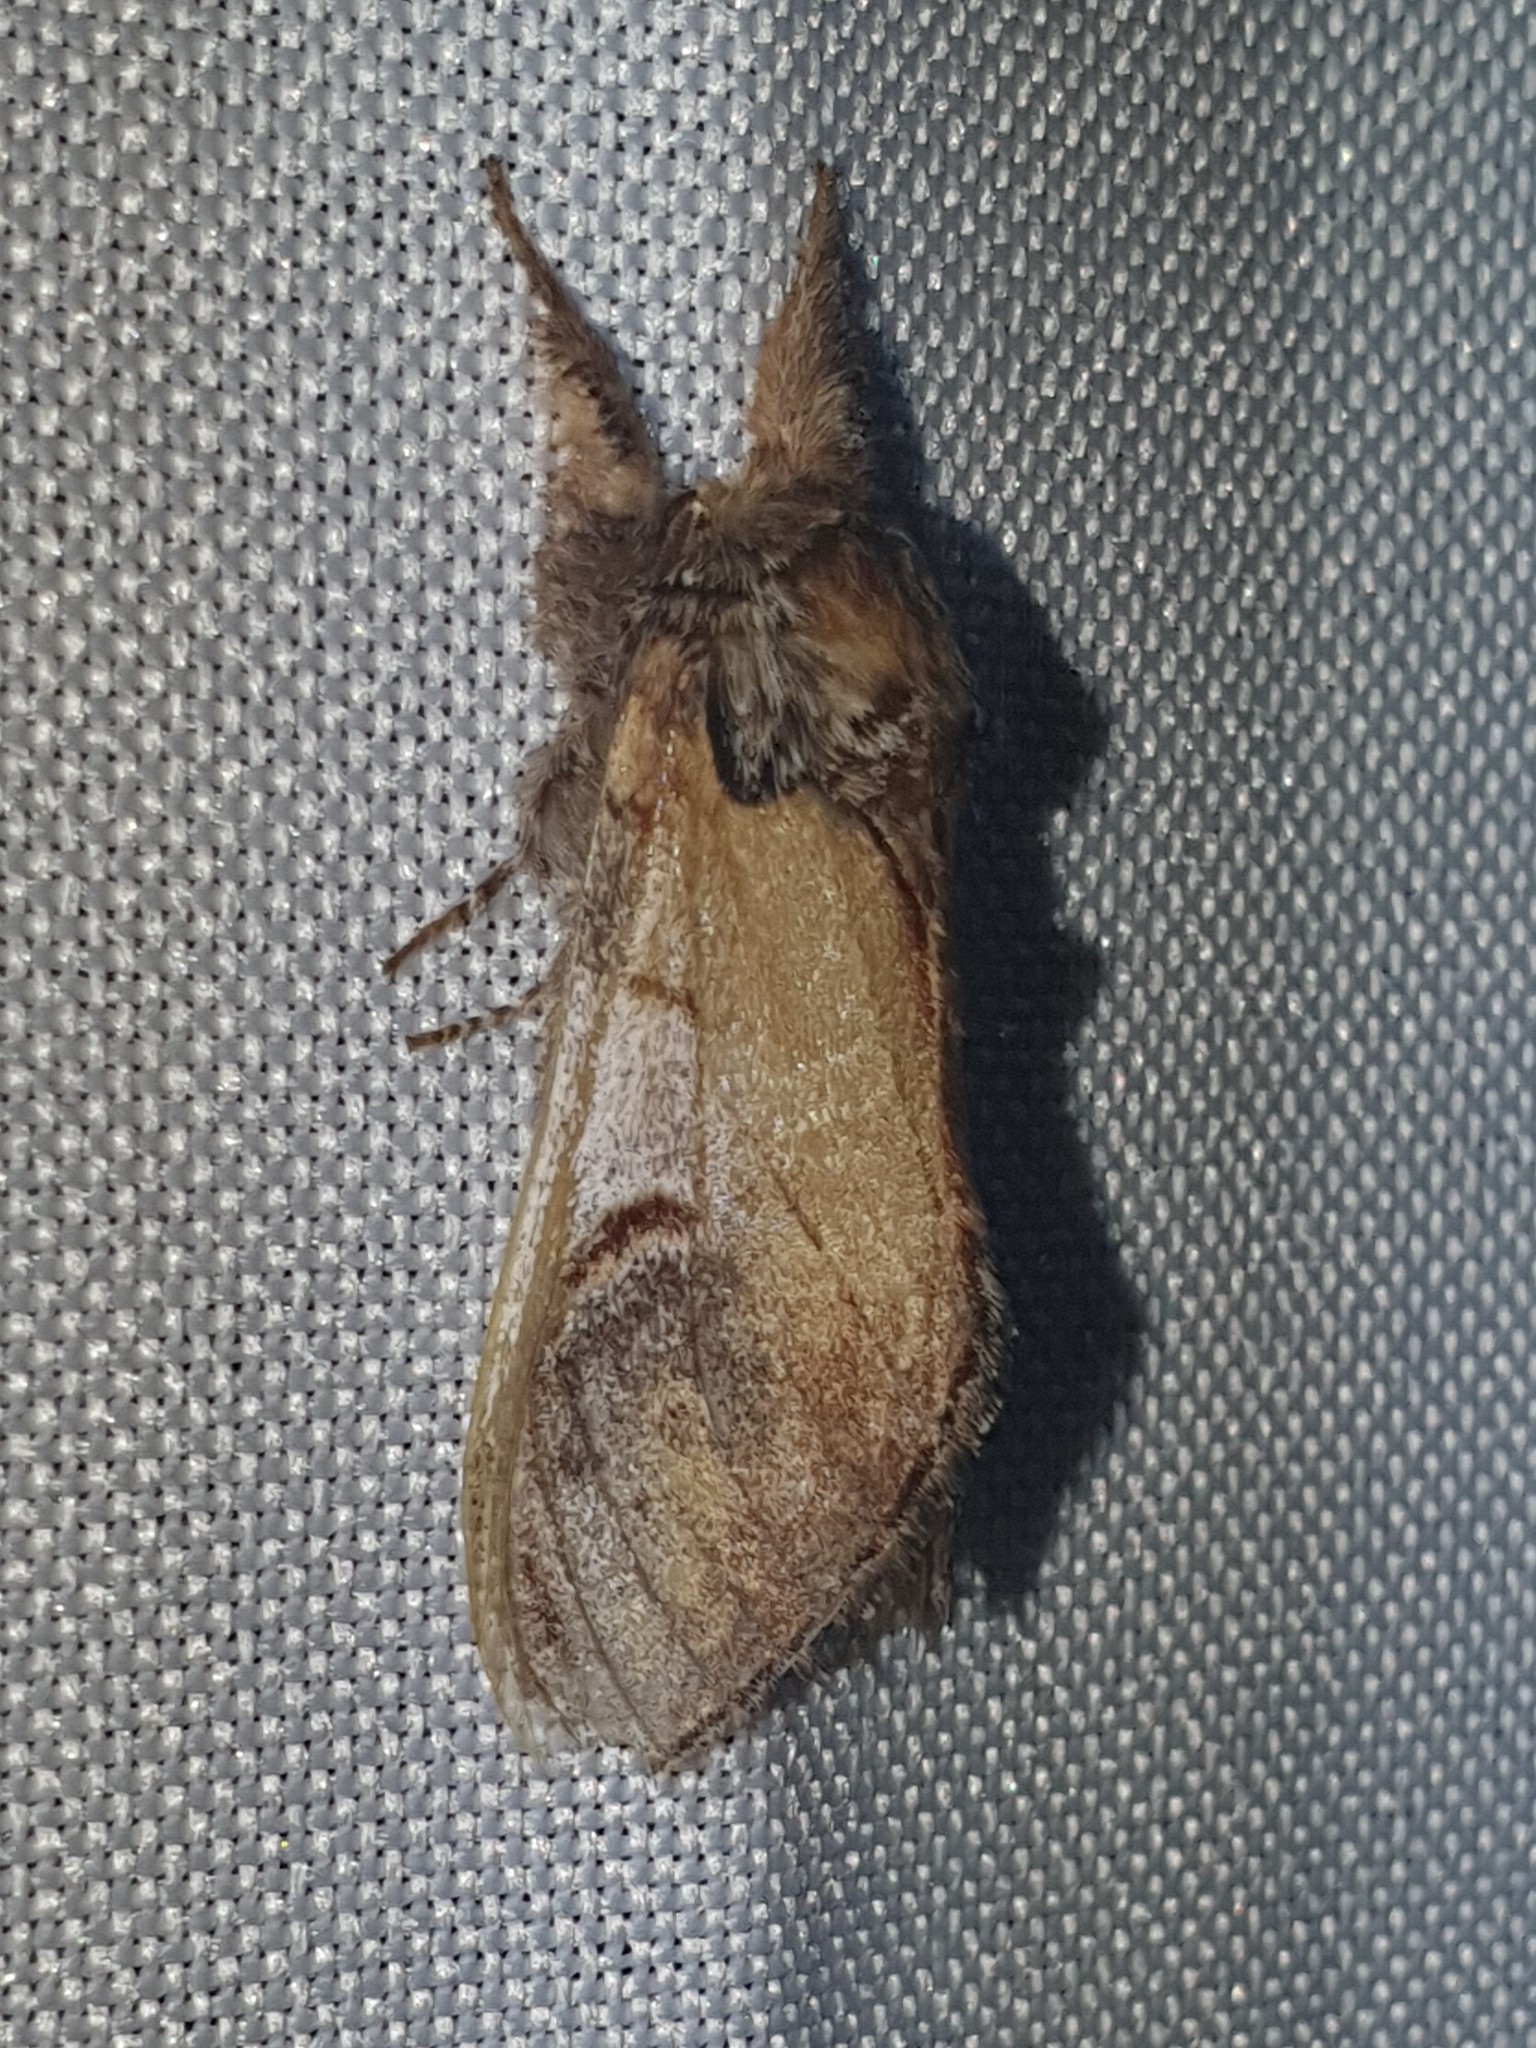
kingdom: Animalia
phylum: Arthropoda
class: Insecta
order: Lepidoptera
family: Notodontidae
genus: Notodonta
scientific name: Notodonta ziczac
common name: Pebble prominent
